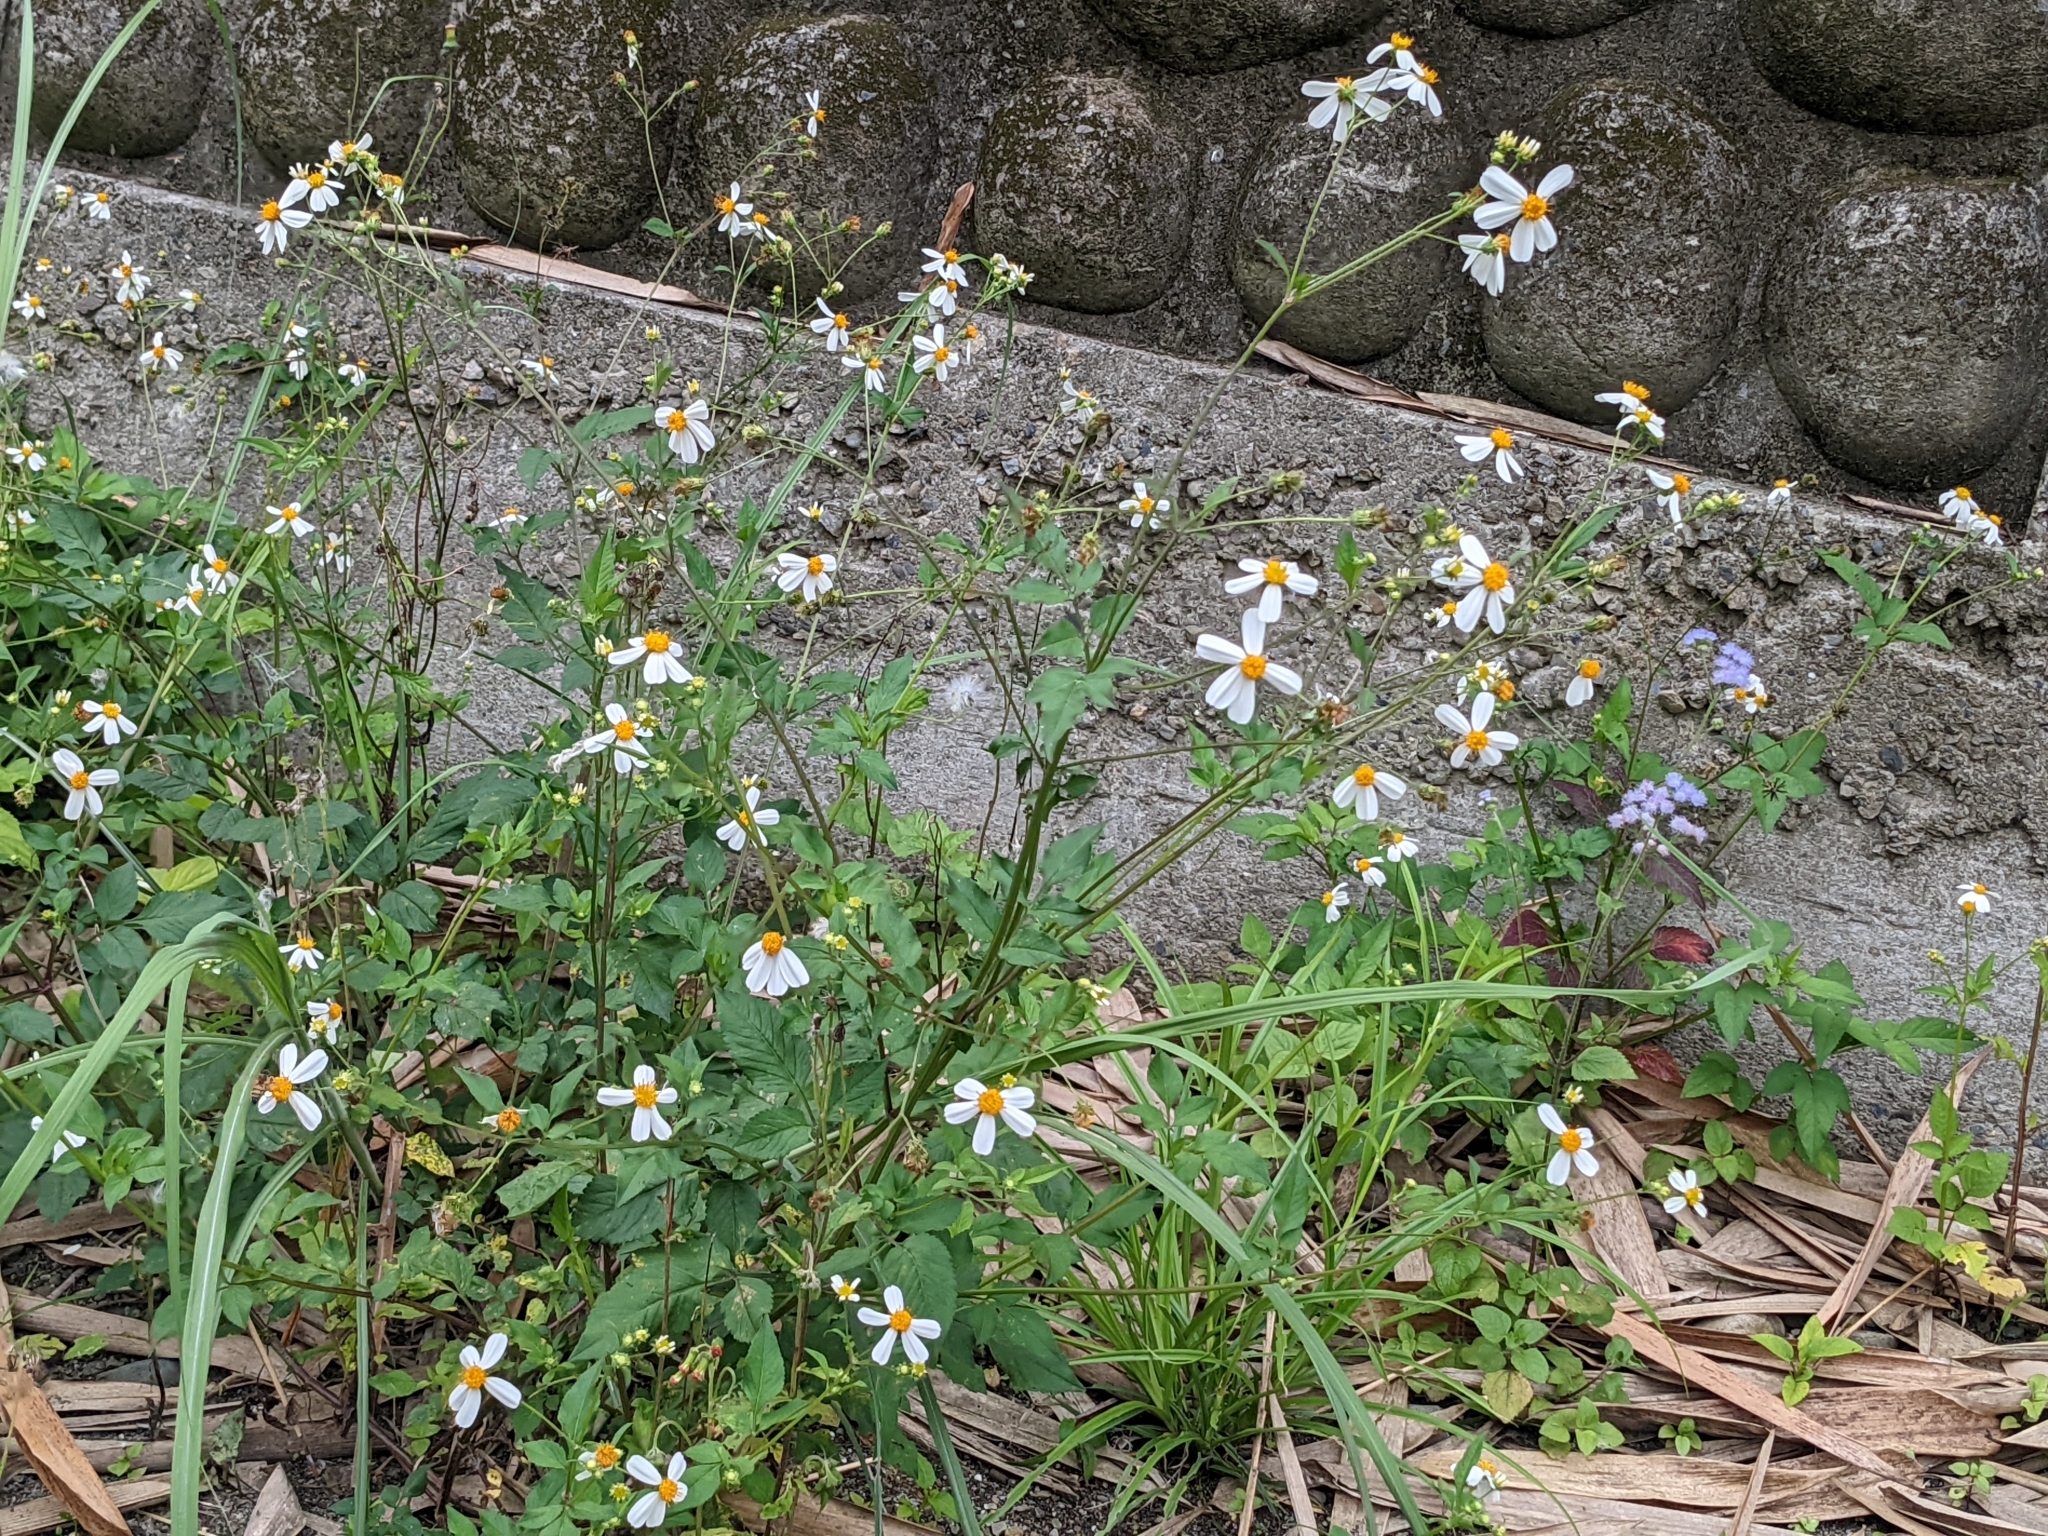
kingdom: Plantae
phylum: Tracheophyta
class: Magnoliopsida
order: Asterales
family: Asteraceae
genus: Bidens
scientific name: Bidens alba
